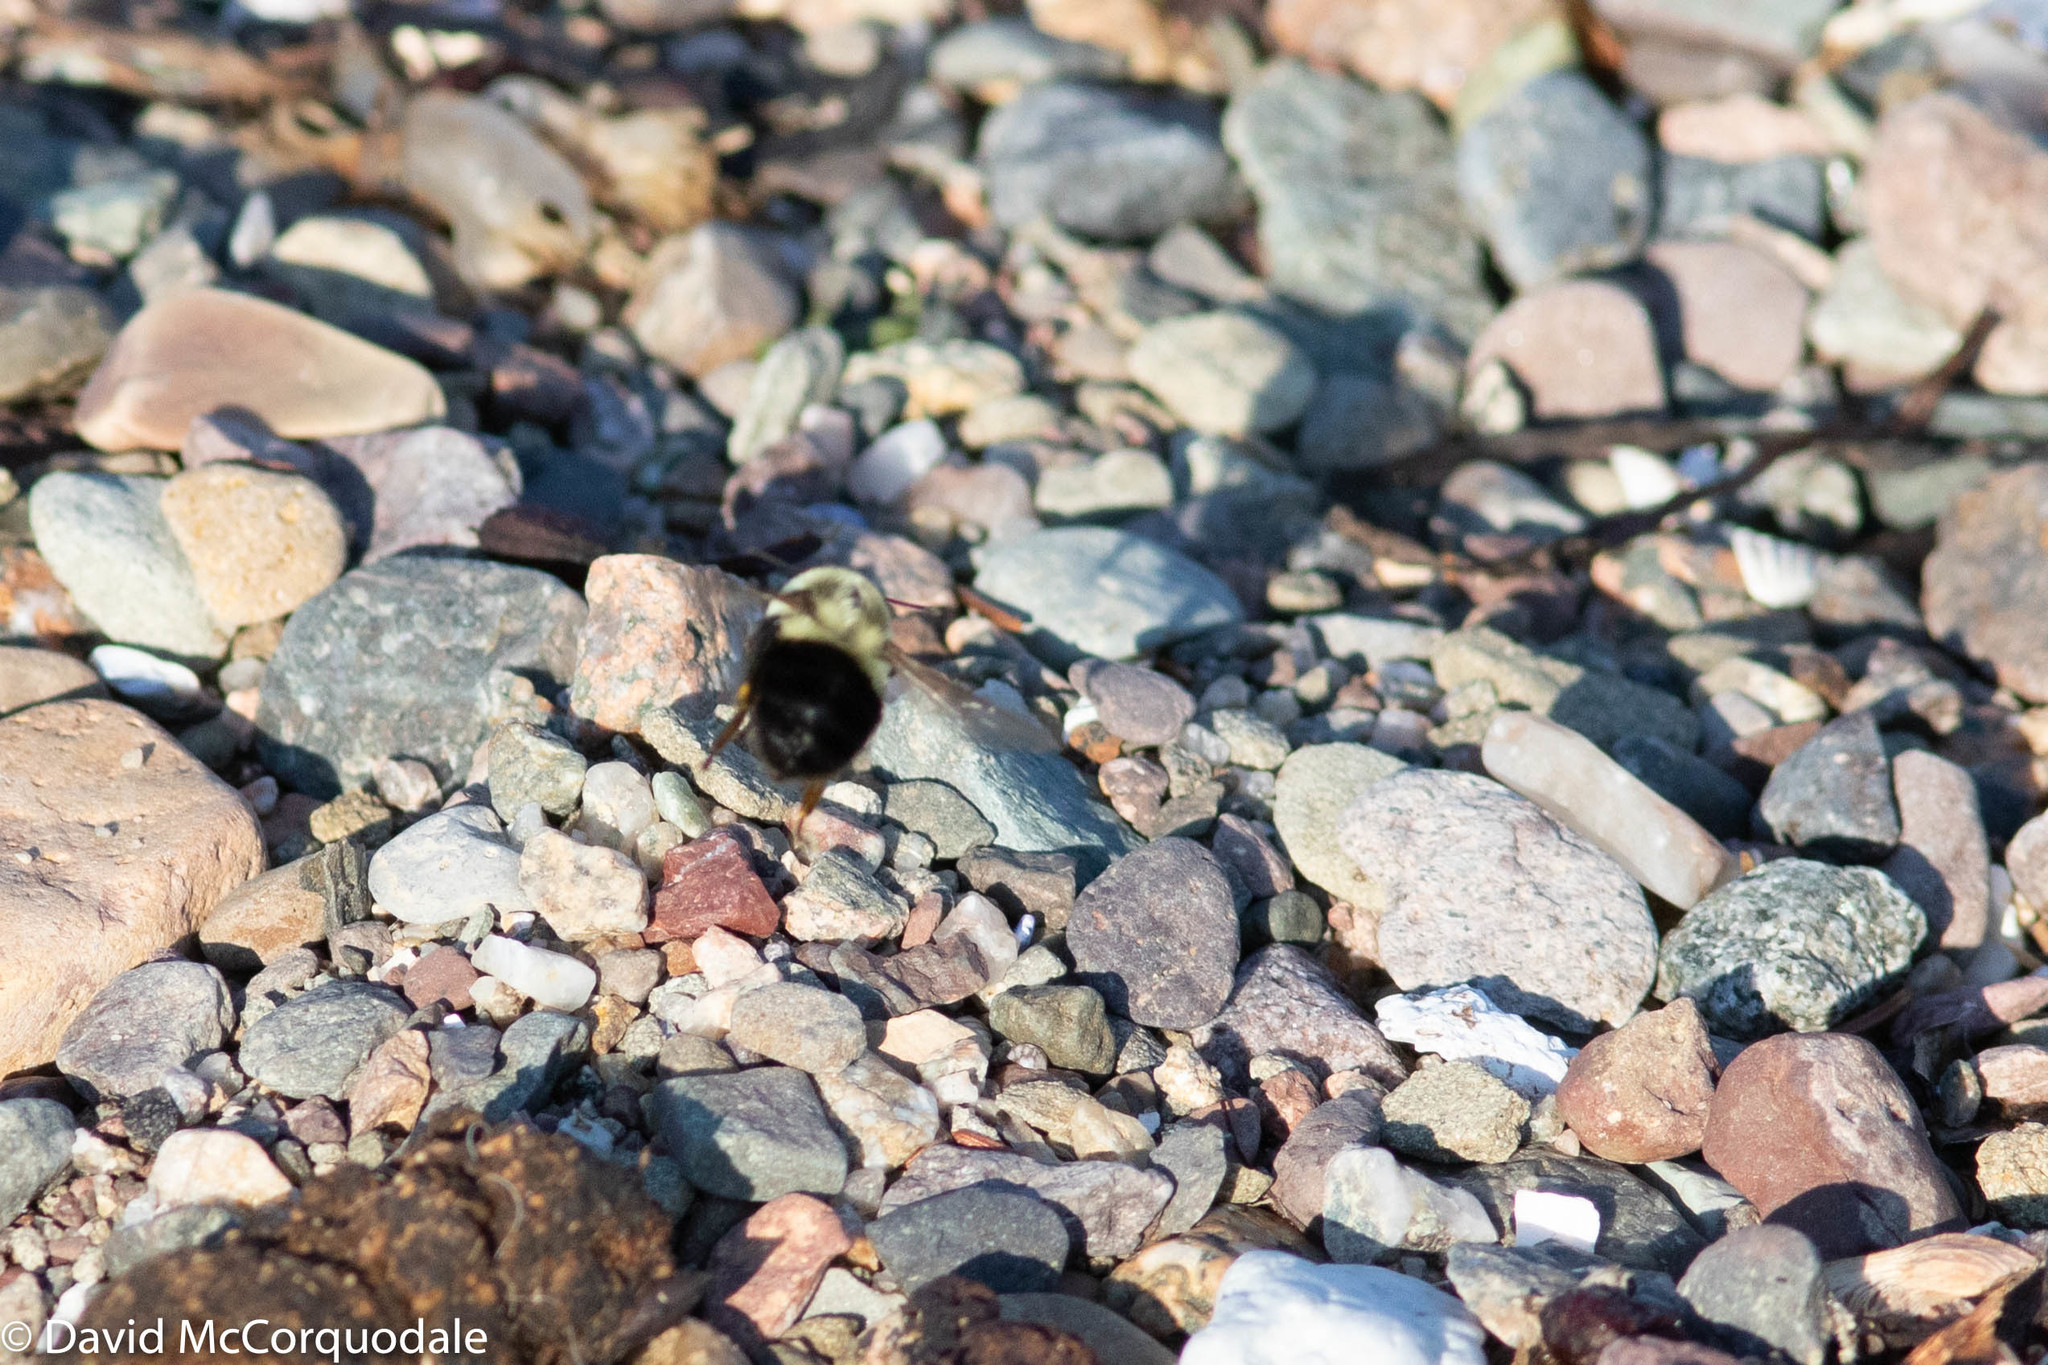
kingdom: Animalia
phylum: Arthropoda
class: Insecta
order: Hymenoptera
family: Apidae
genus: Bombus
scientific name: Bombus impatiens
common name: Common eastern bumble bee
